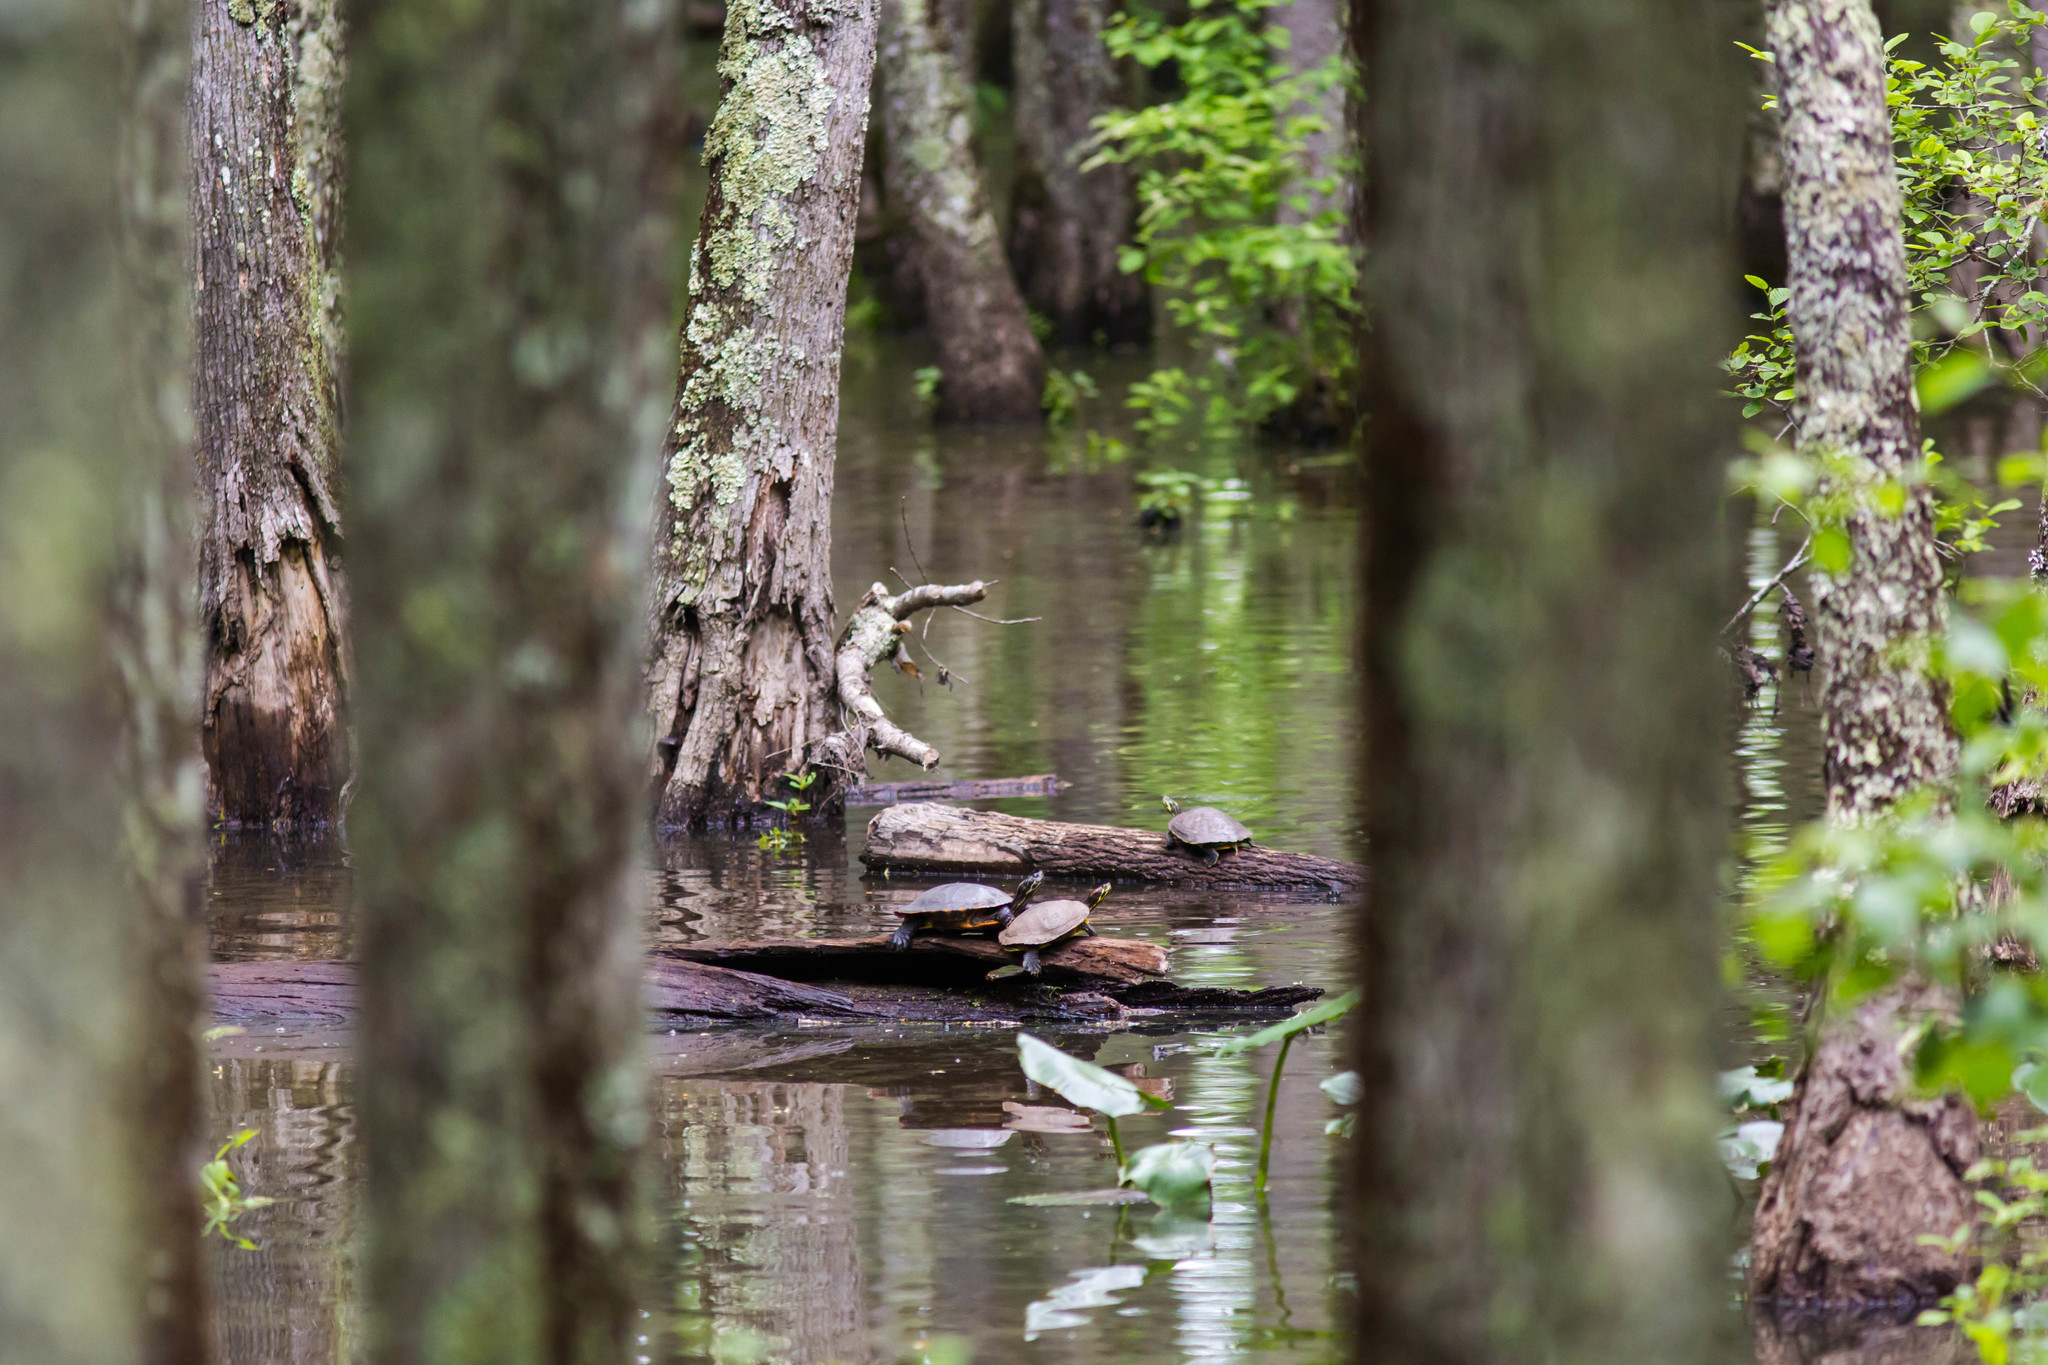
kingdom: Animalia
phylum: Chordata
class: Testudines
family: Emydidae
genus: Trachemys
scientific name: Trachemys scripta
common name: Slider
